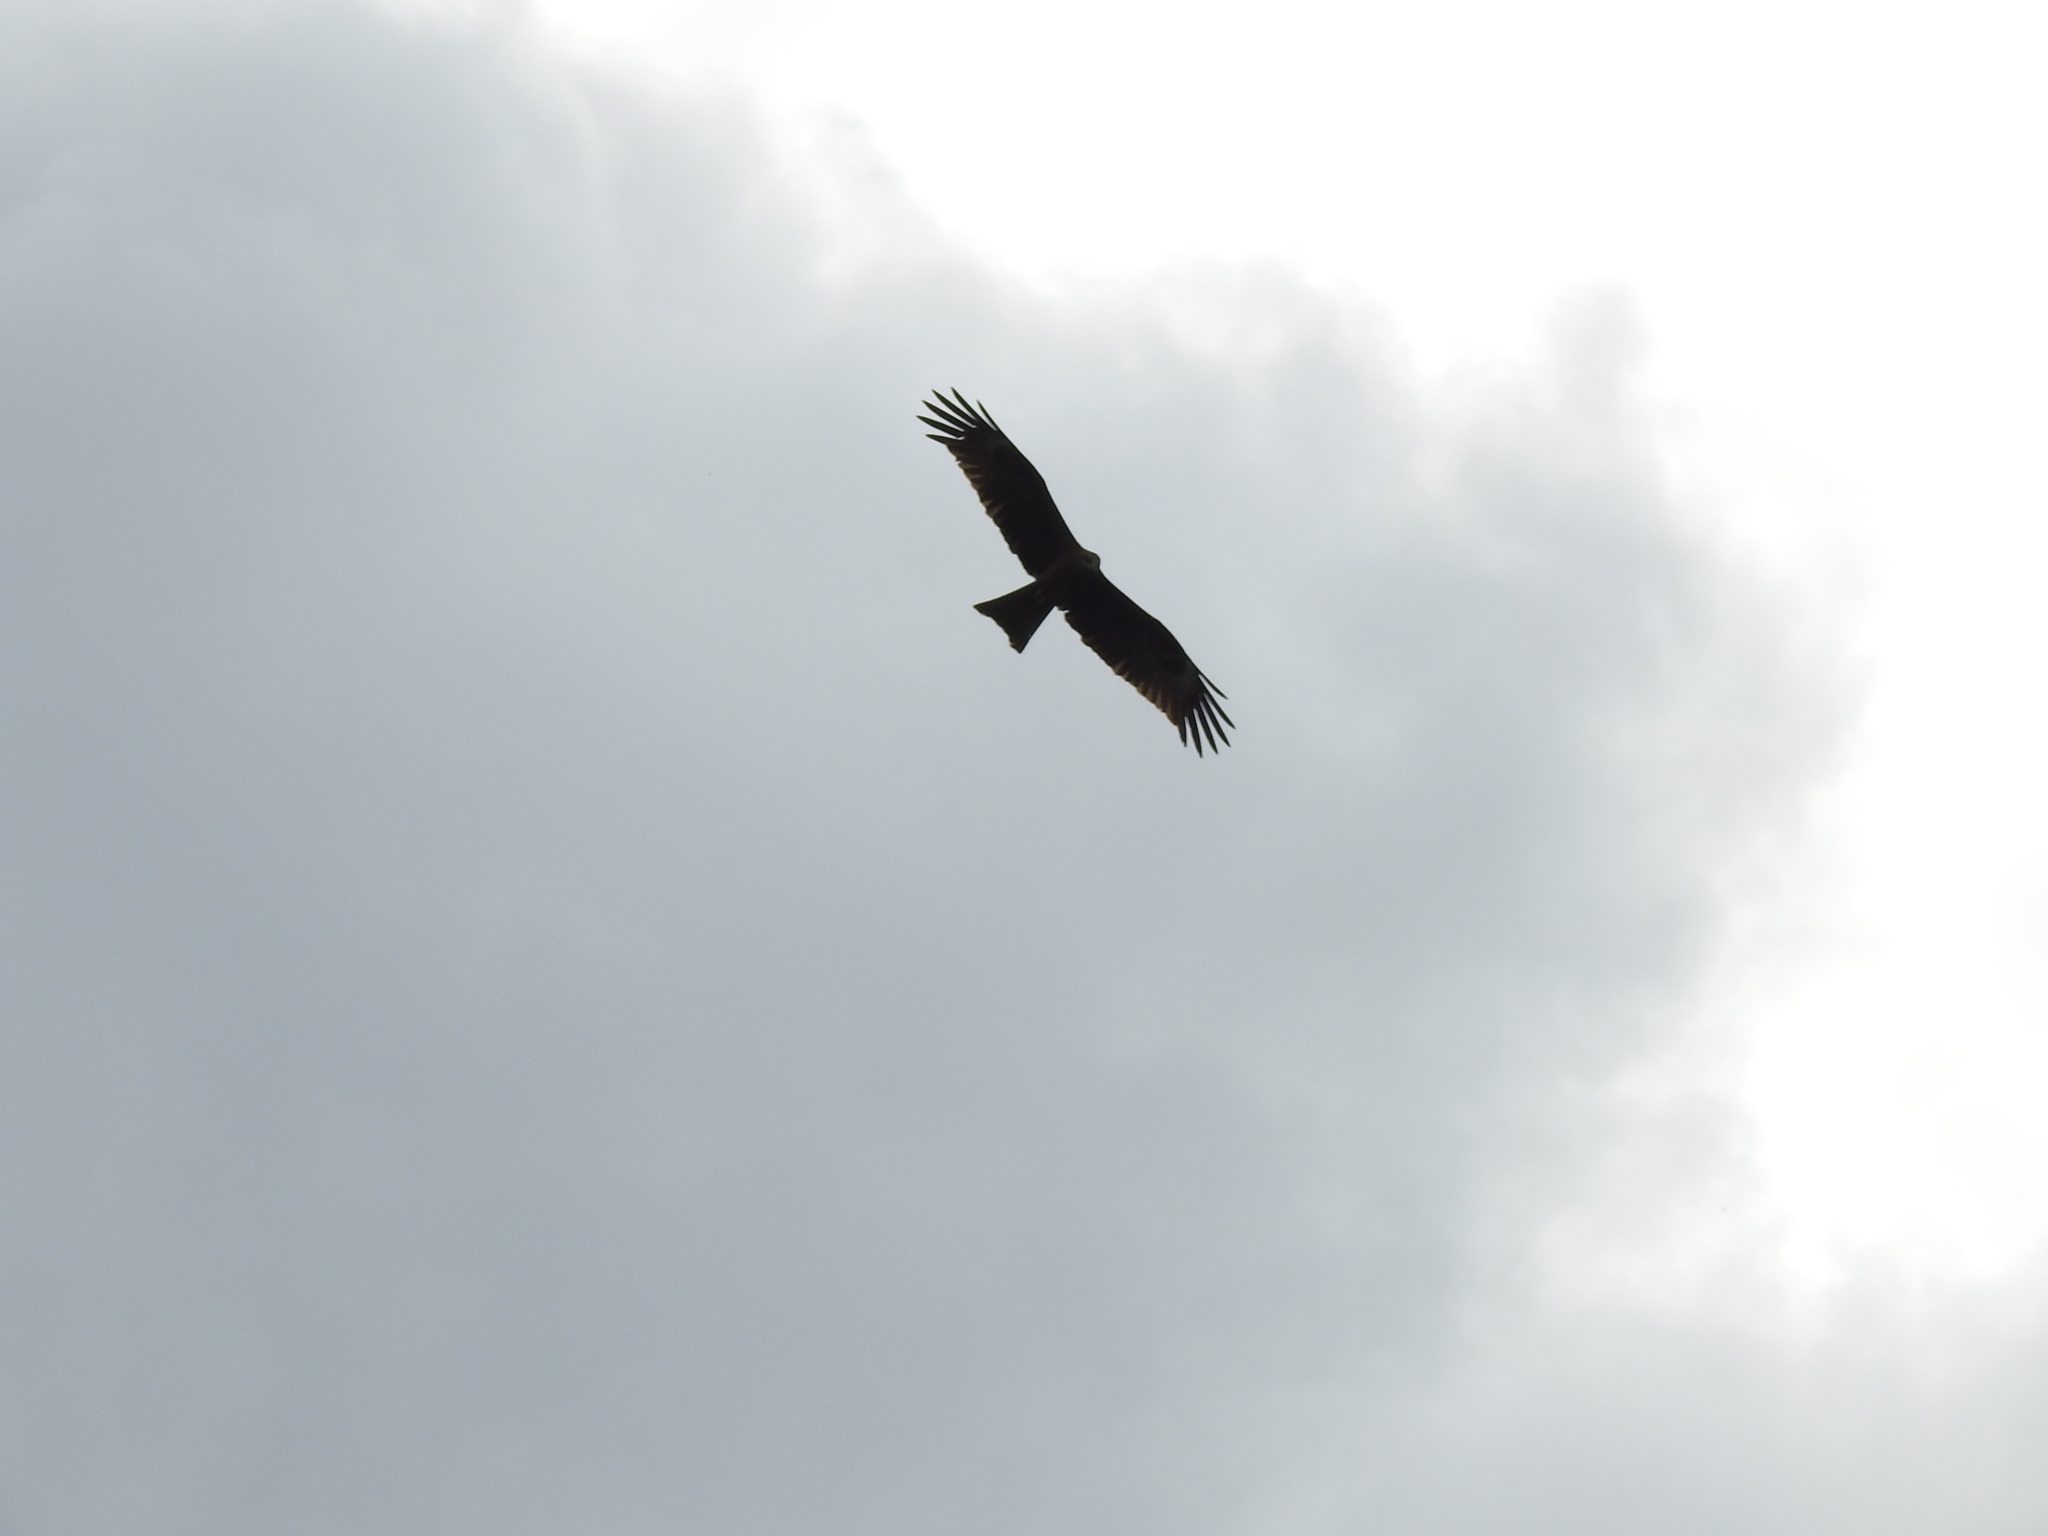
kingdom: Animalia
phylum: Chordata
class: Aves
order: Accipitriformes
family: Accipitridae
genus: Milvus
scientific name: Milvus migrans
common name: Black kite
